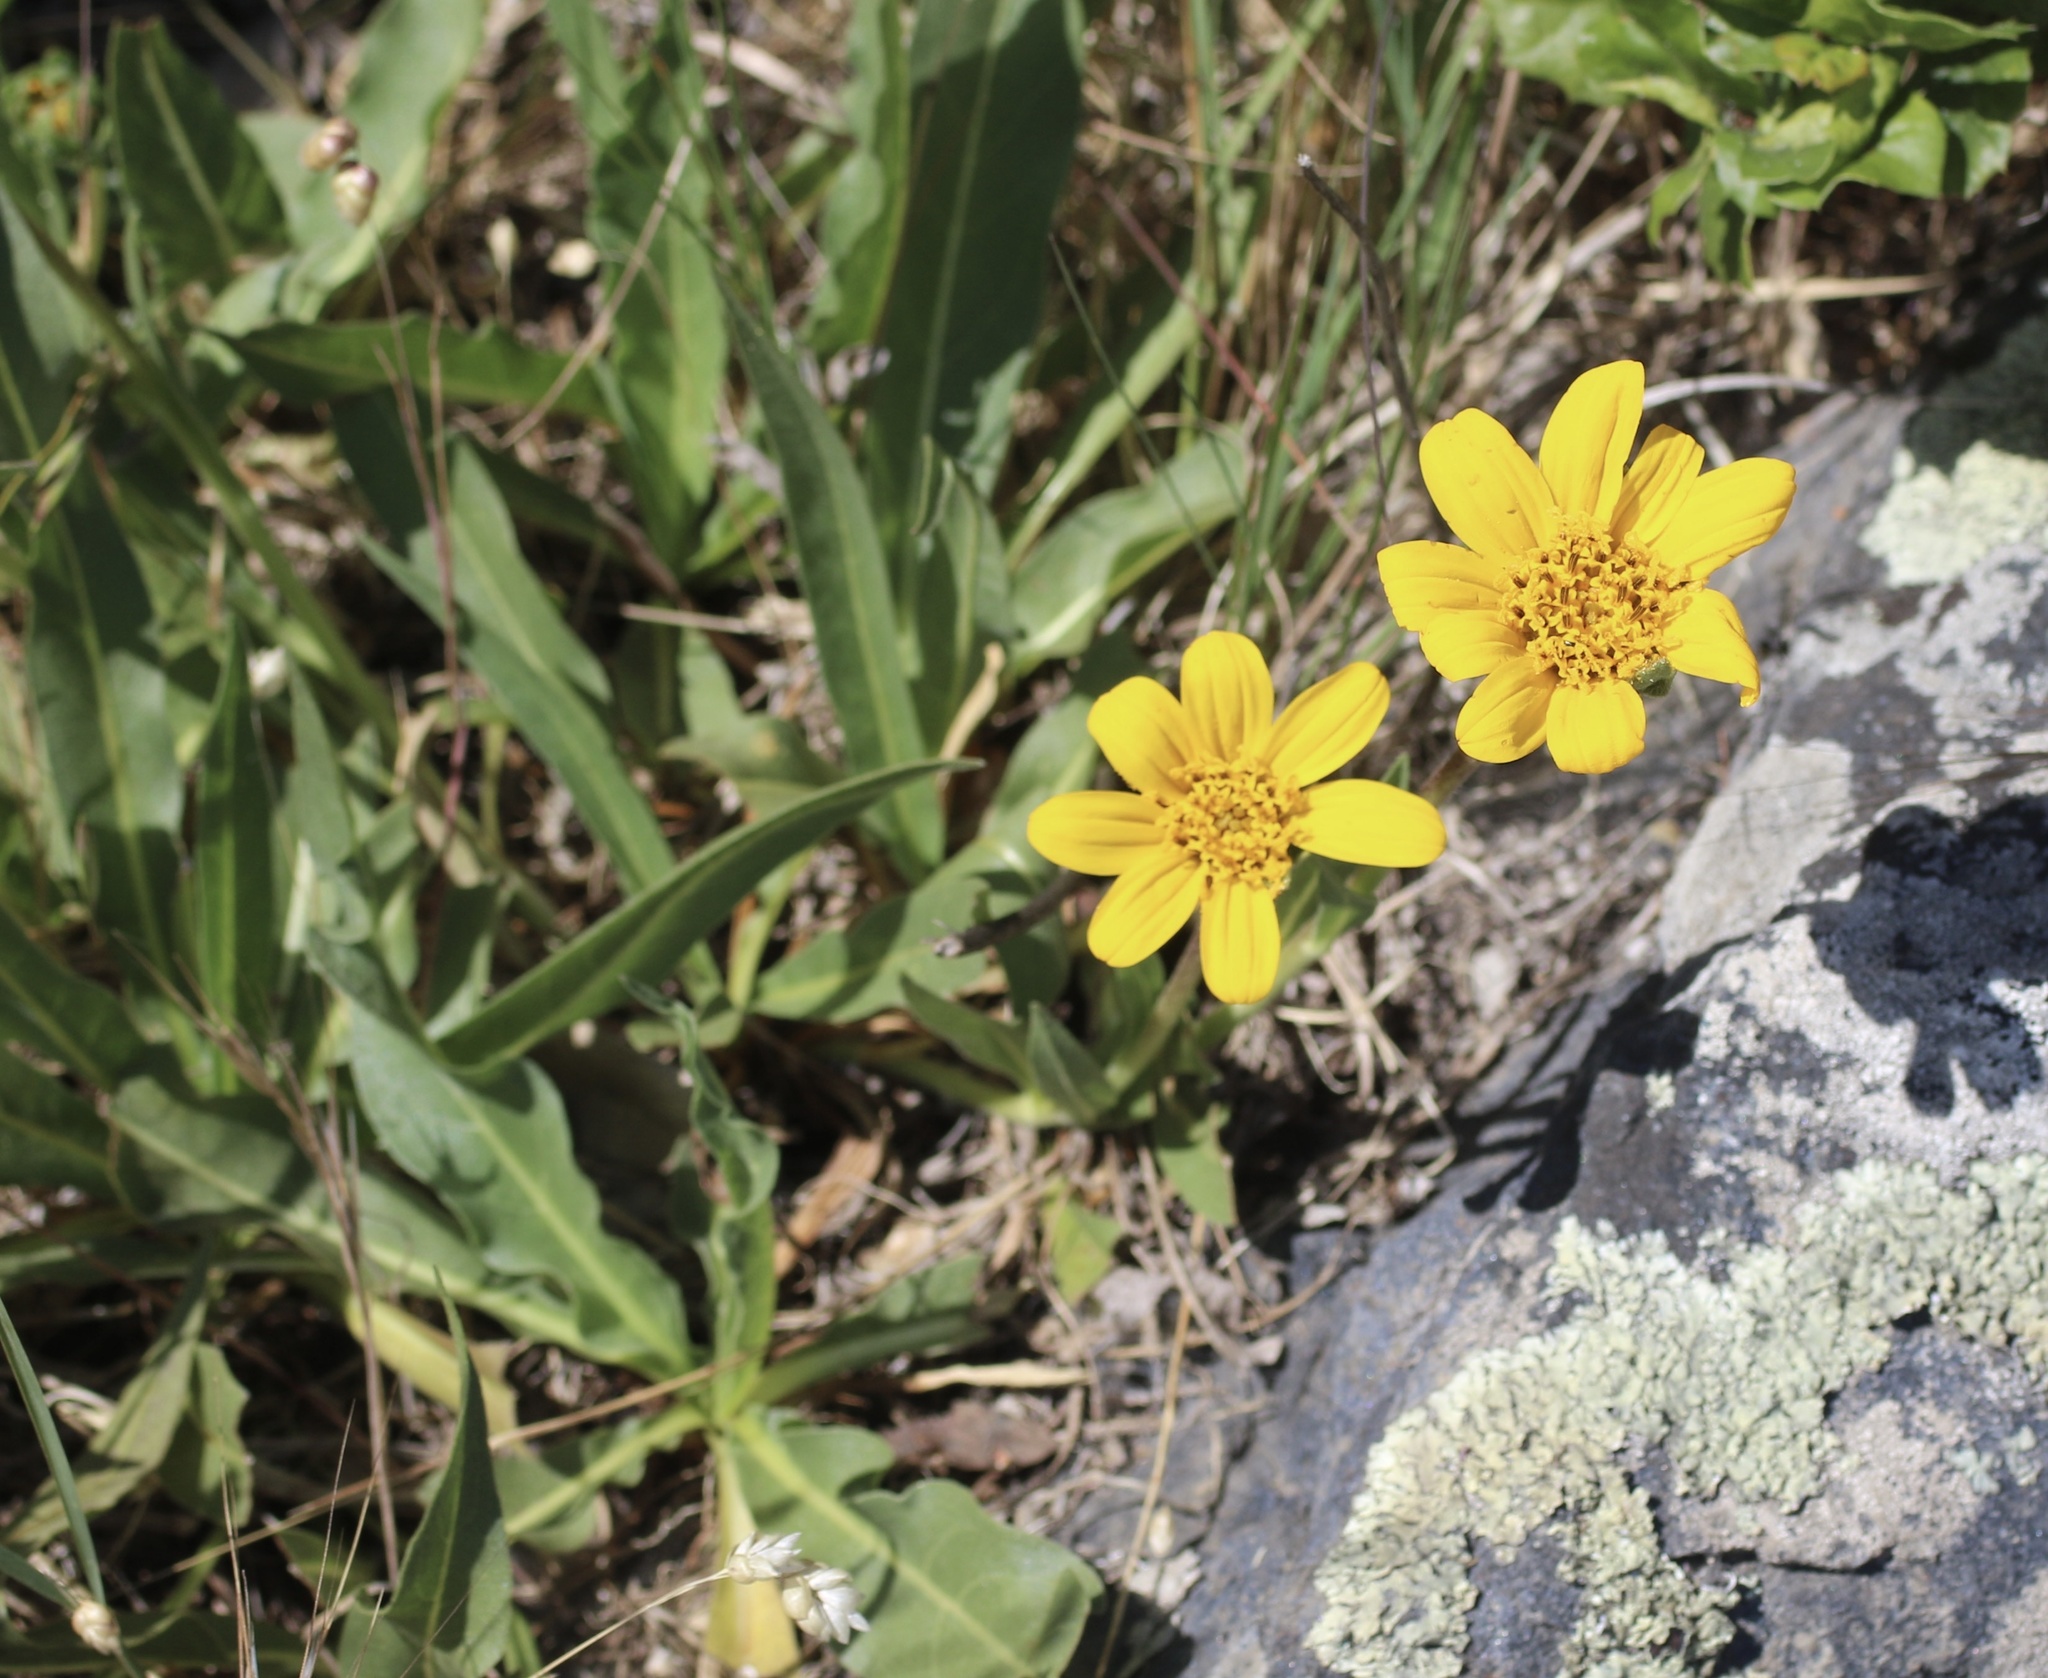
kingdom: Plantae
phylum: Tracheophyta
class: Magnoliopsida
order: Asterales
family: Asteraceae
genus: Wyethia
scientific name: Wyethia angustifolia
